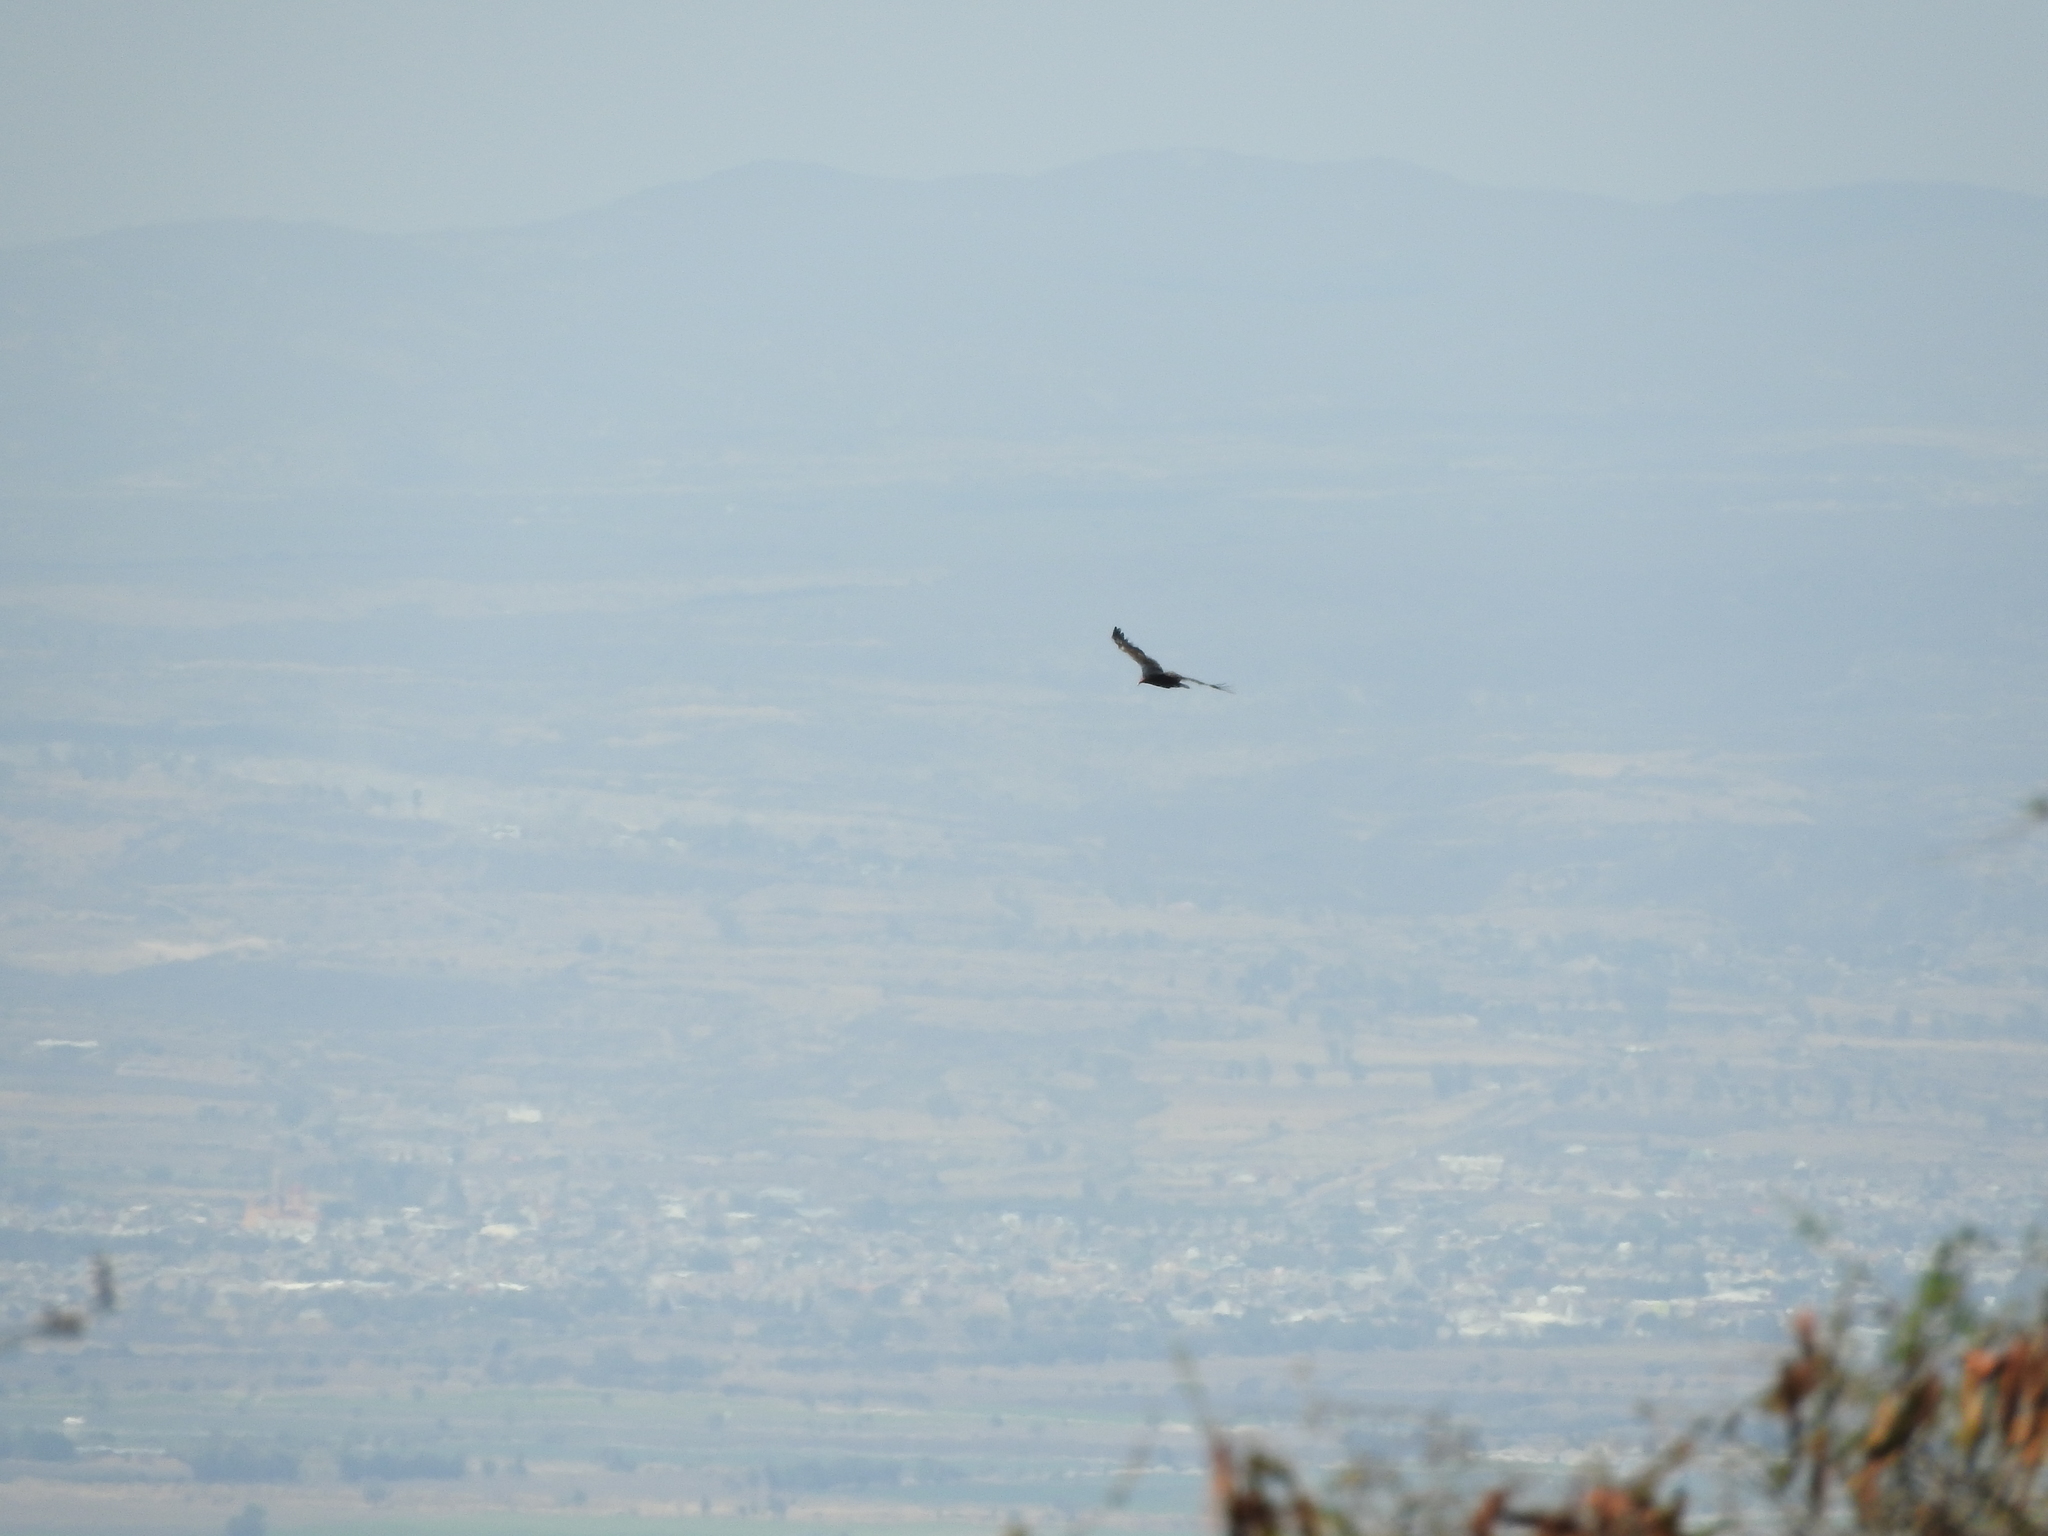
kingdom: Animalia
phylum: Chordata
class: Aves
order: Accipitriformes
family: Cathartidae
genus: Cathartes
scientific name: Cathartes aura
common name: Turkey vulture
